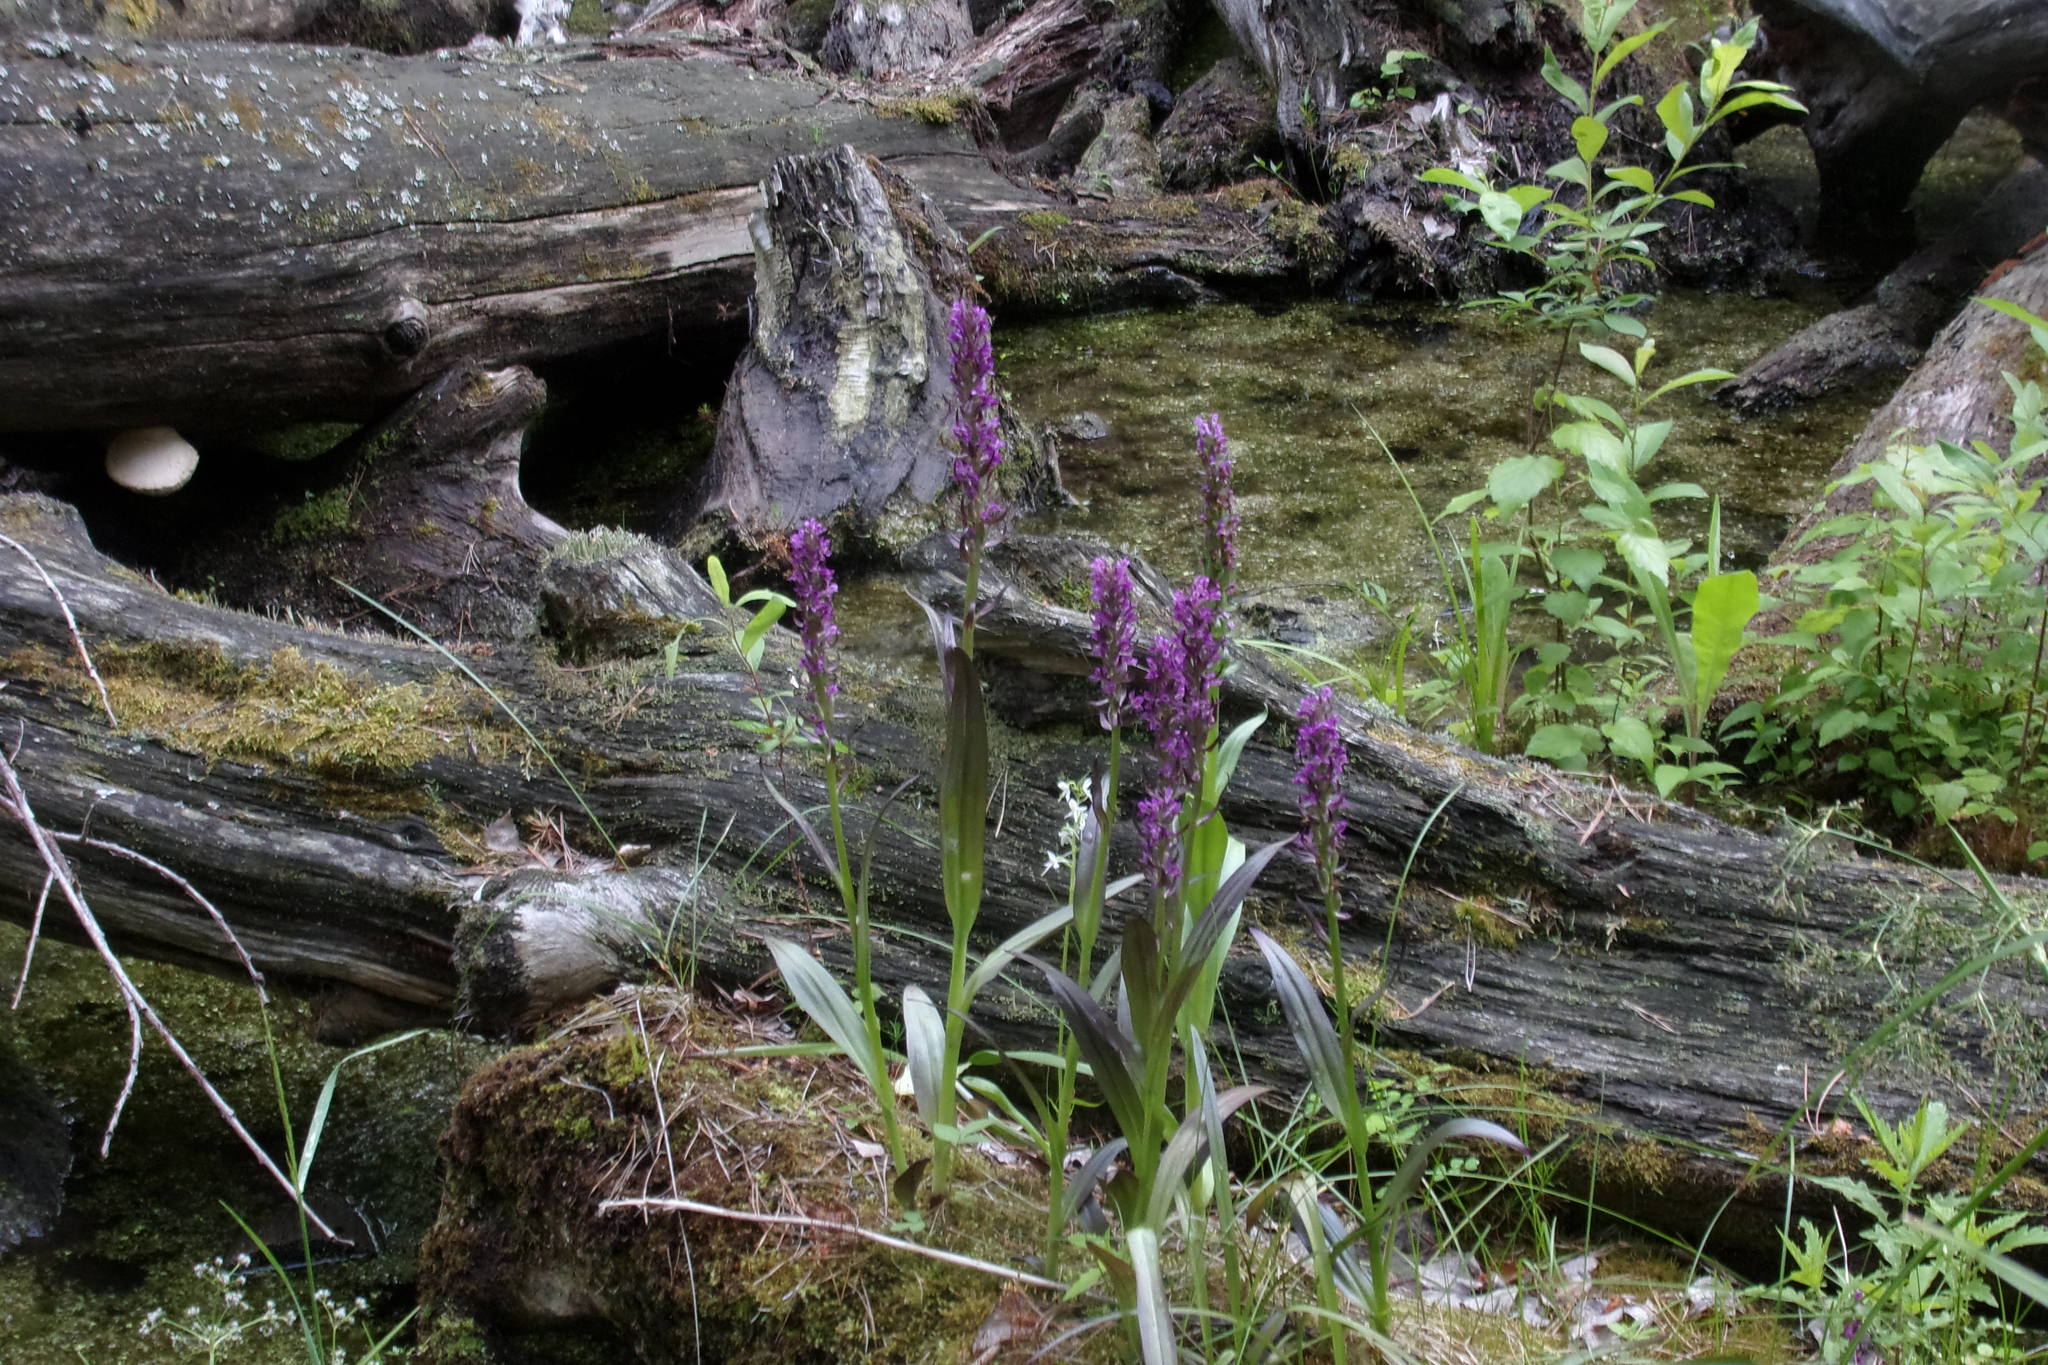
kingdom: Plantae
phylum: Tracheophyta
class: Liliopsida
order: Asparagales
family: Orchidaceae
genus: Dactylorhiza
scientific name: Dactylorhiza incarnata
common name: Early marsh-orchid
